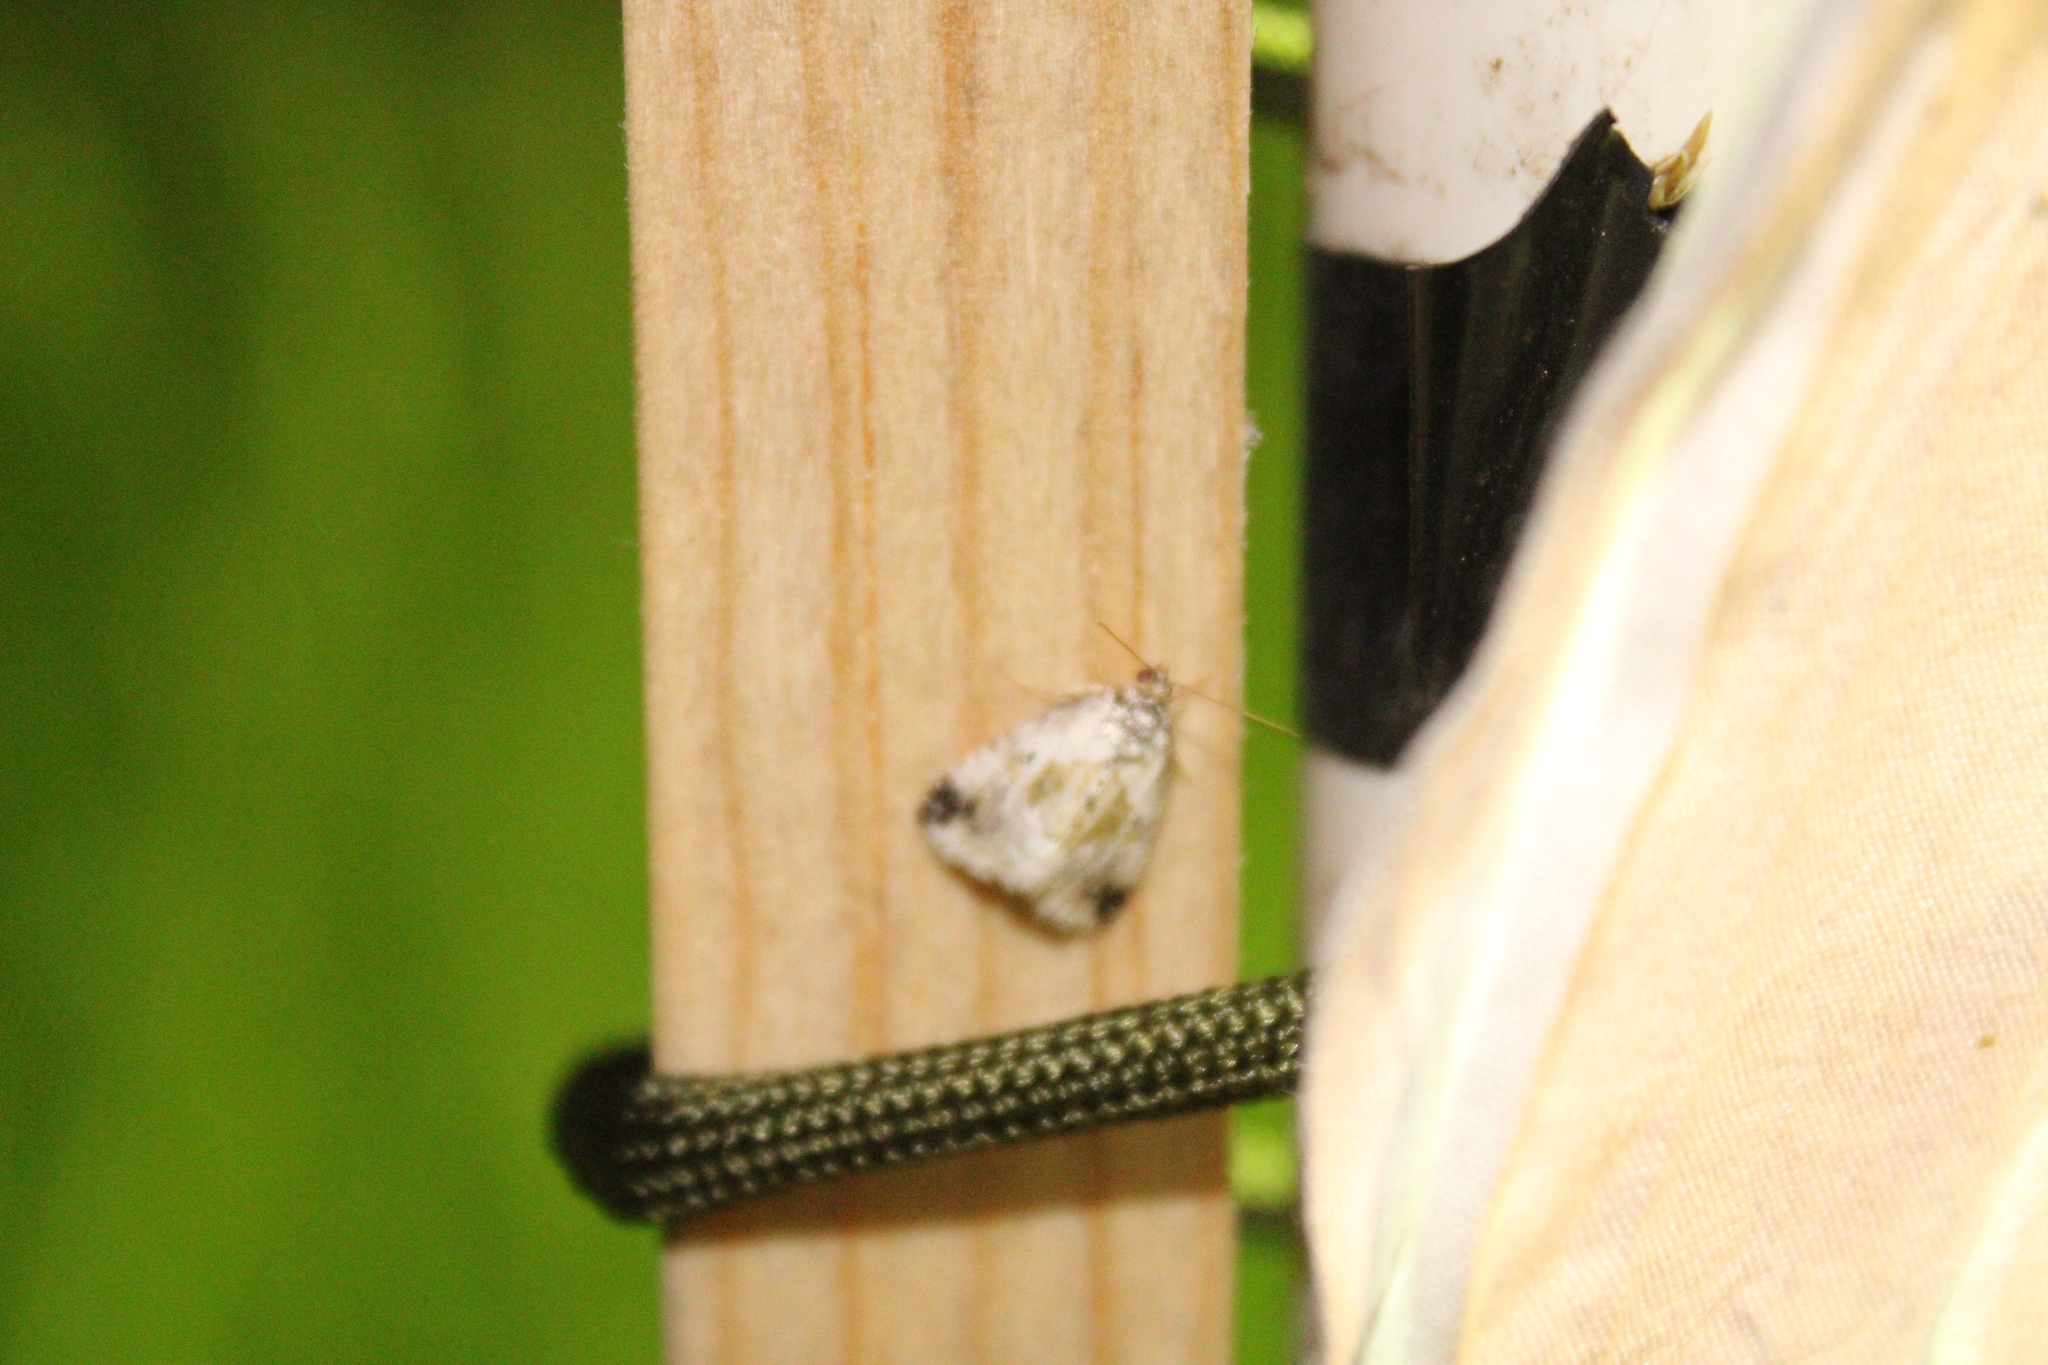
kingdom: Animalia
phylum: Arthropoda
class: Insecta
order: Lepidoptera
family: Noctuidae
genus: Maliattha
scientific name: Maliattha synochitis
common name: Black-dotted glyph
